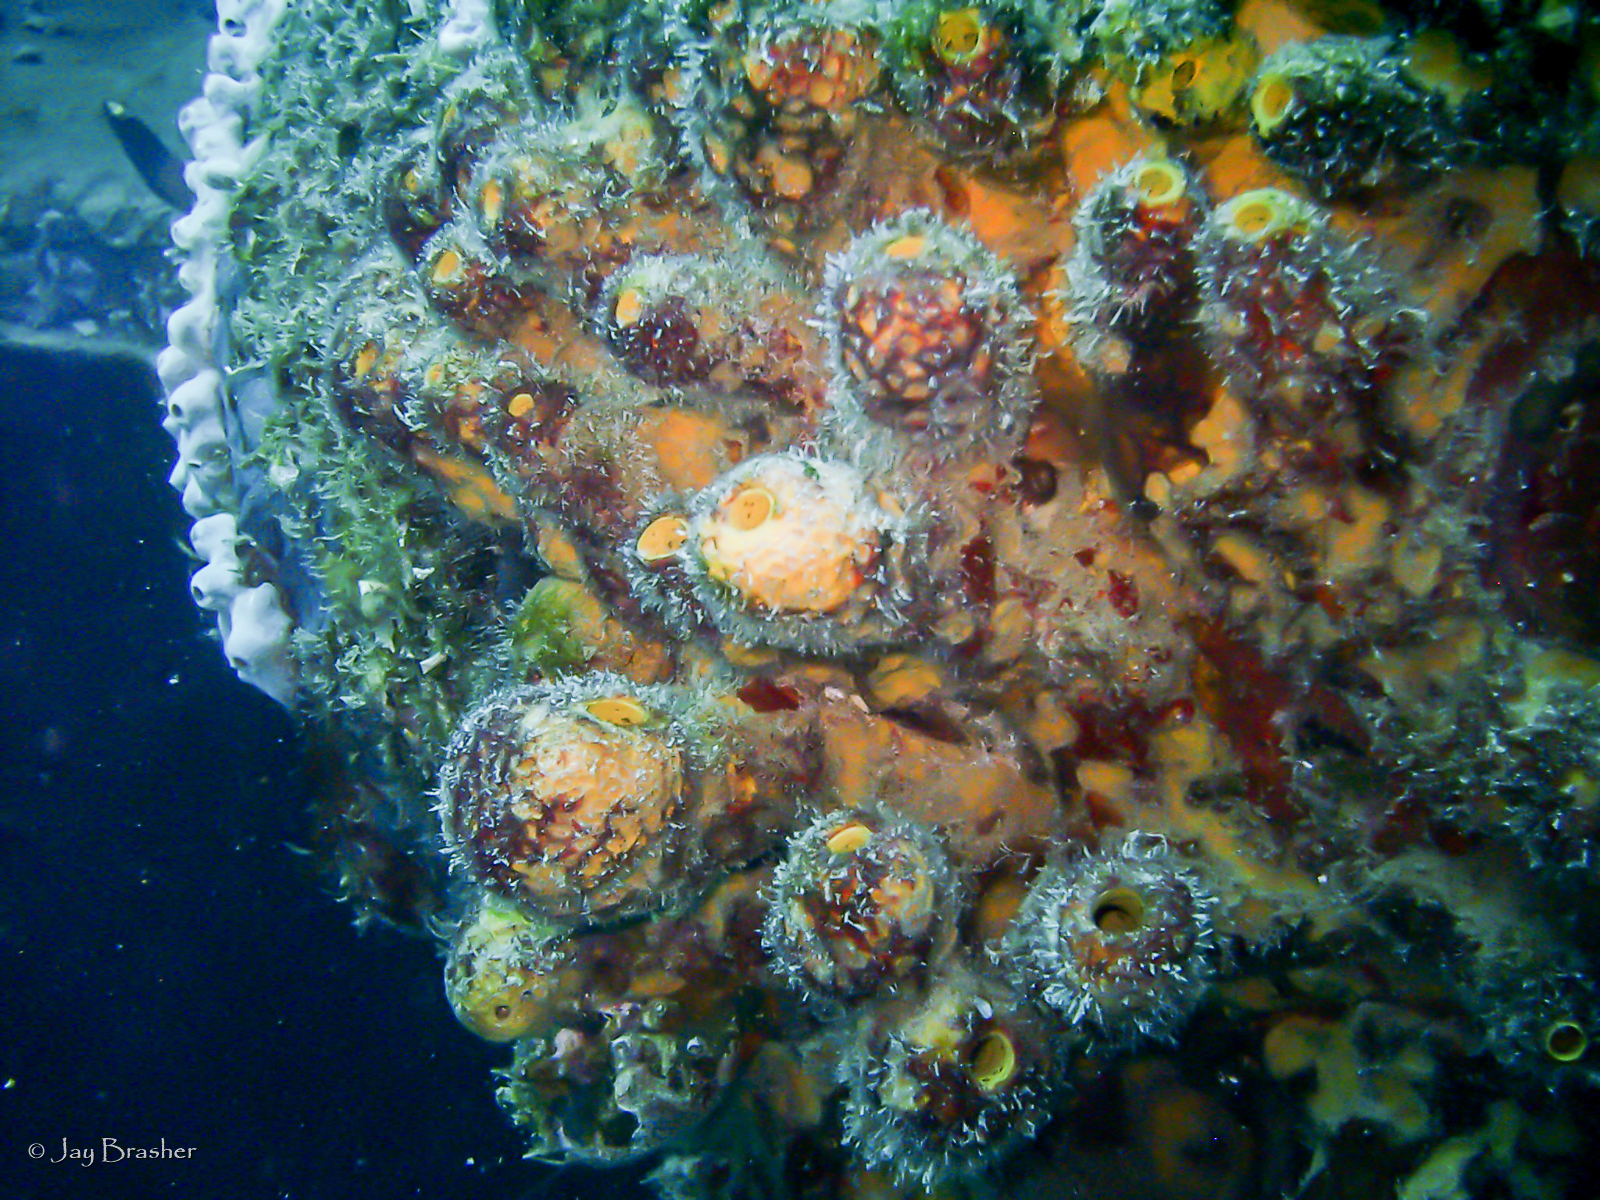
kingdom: Animalia
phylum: Porifera
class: Demospongiae
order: Verongiida
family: Aplysinidae
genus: Aplysina
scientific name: Aplysina lacunosa
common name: Convoluted barrel sponge
